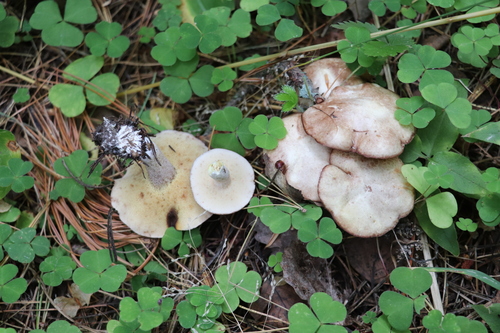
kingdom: Fungi
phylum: Basidiomycota
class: Agaricomycetes
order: Boletales
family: Suillaceae
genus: Suillus
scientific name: Suillus placidus
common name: Slippery white bolete
